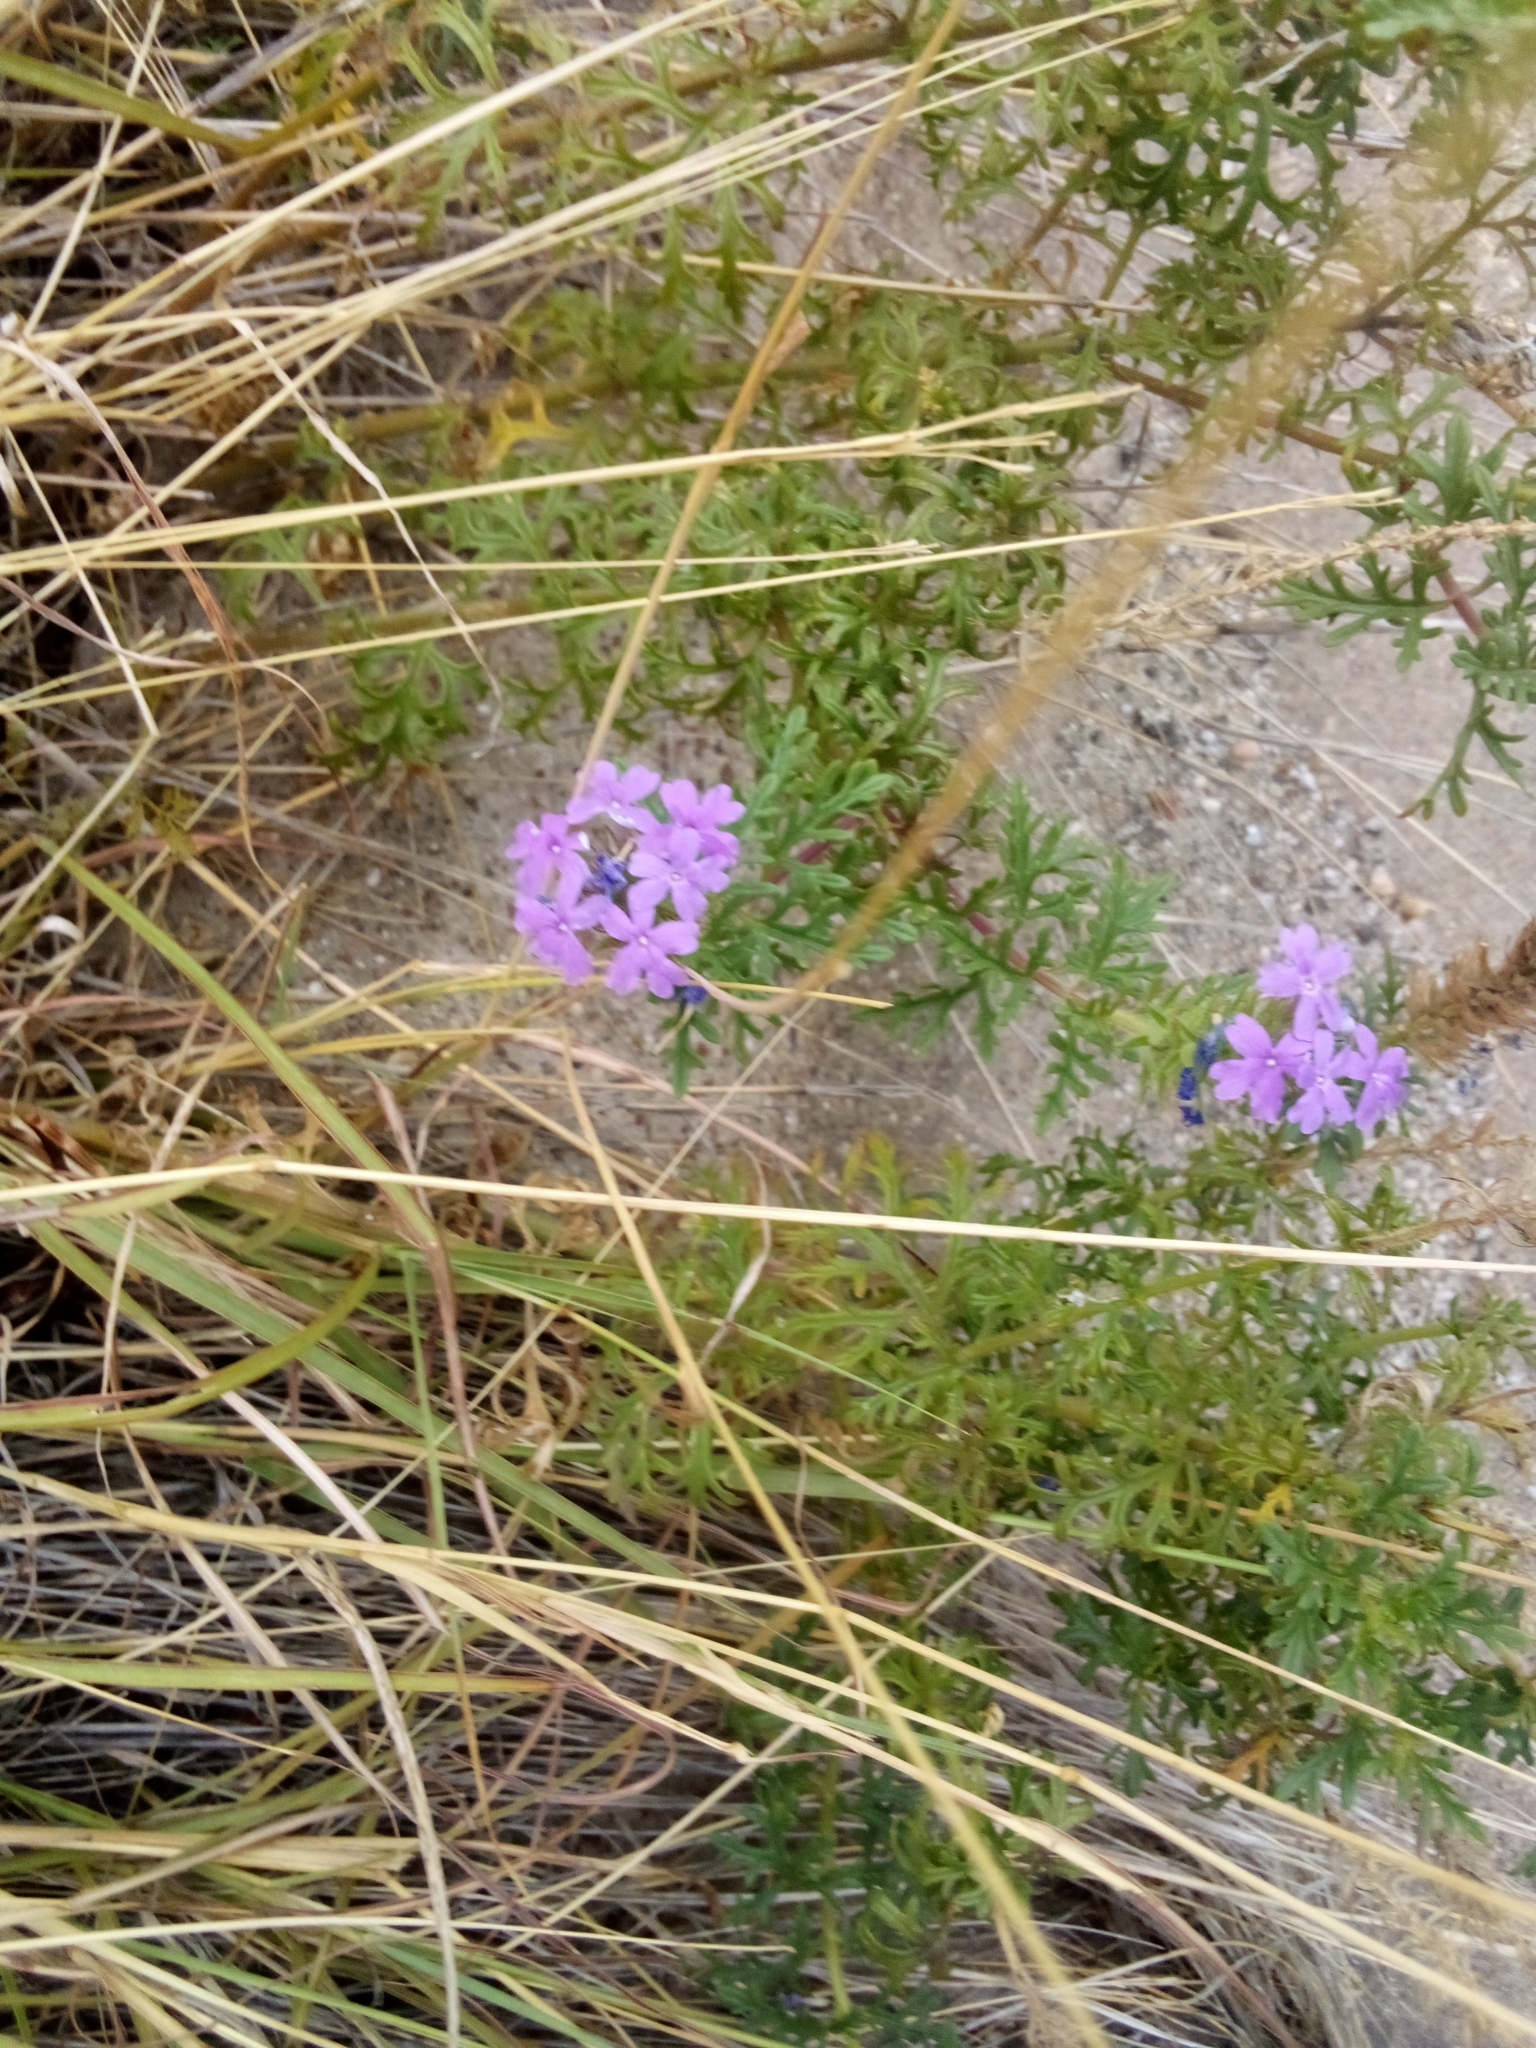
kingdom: Plantae
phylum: Tracheophyta
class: Magnoliopsida
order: Lamiales
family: Verbenaceae
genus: Verbena
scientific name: Verbena bipinnatifida
